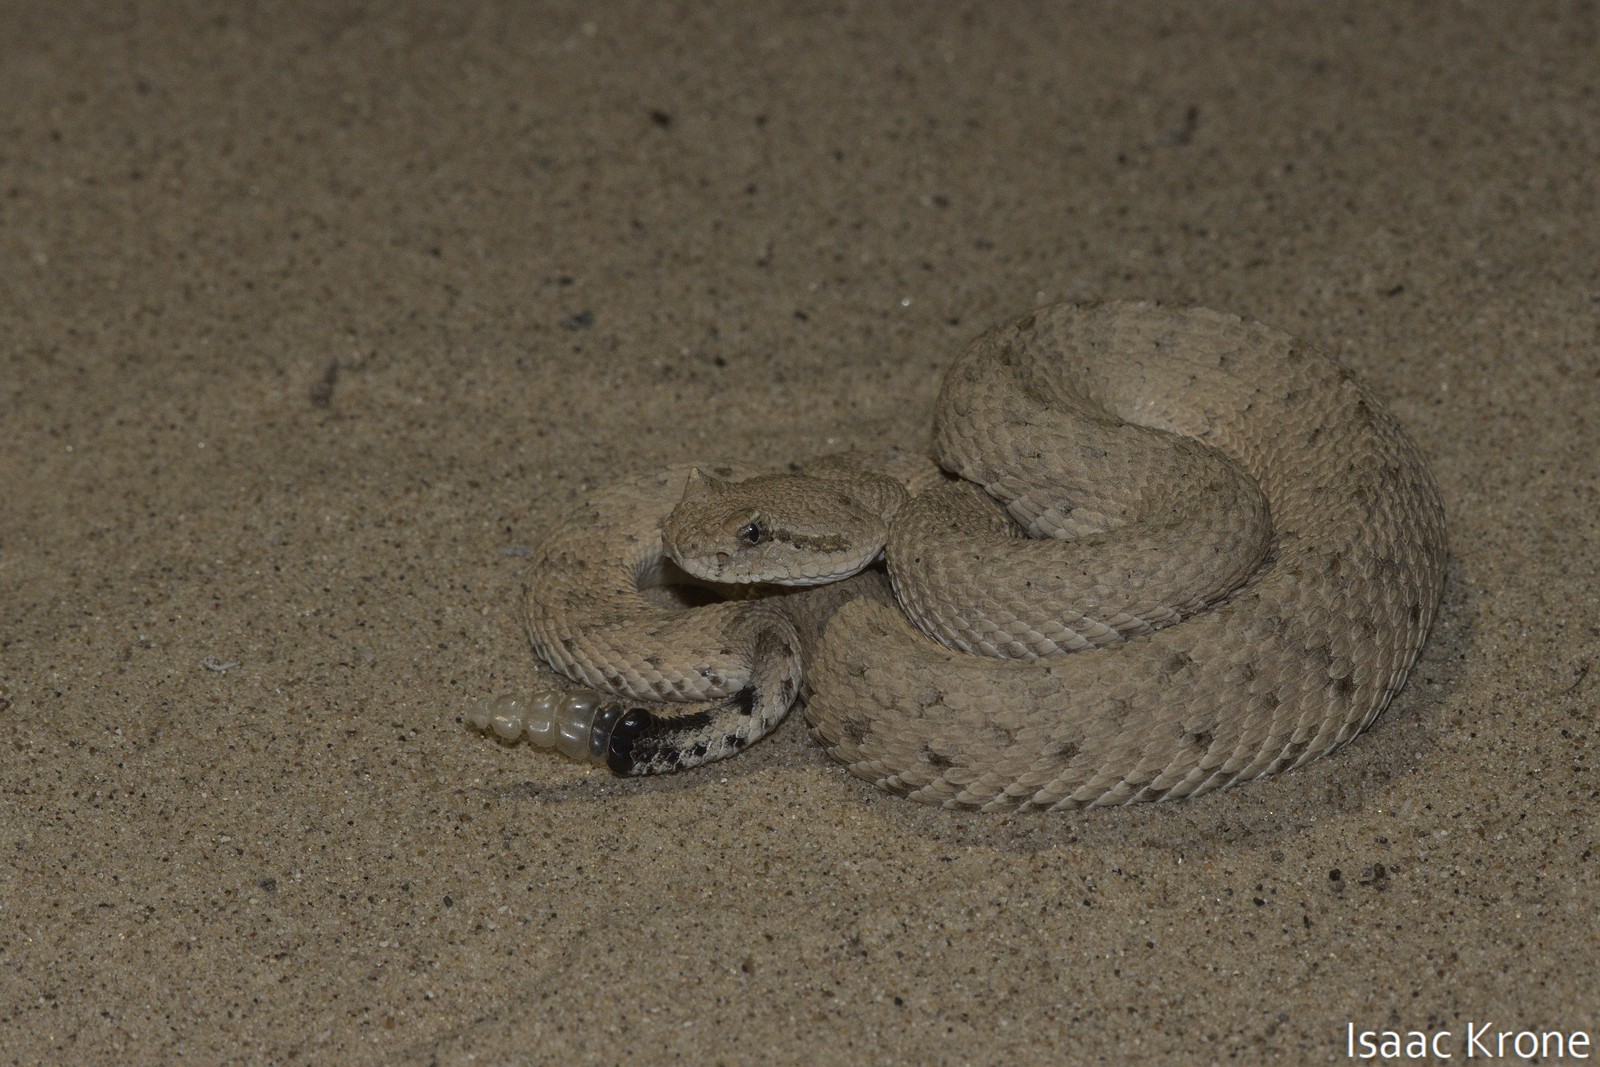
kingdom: Animalia
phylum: Chordata
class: Squamata
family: Viperidae
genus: Crotalus
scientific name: Crotalus cerastes
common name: Sidewinder
